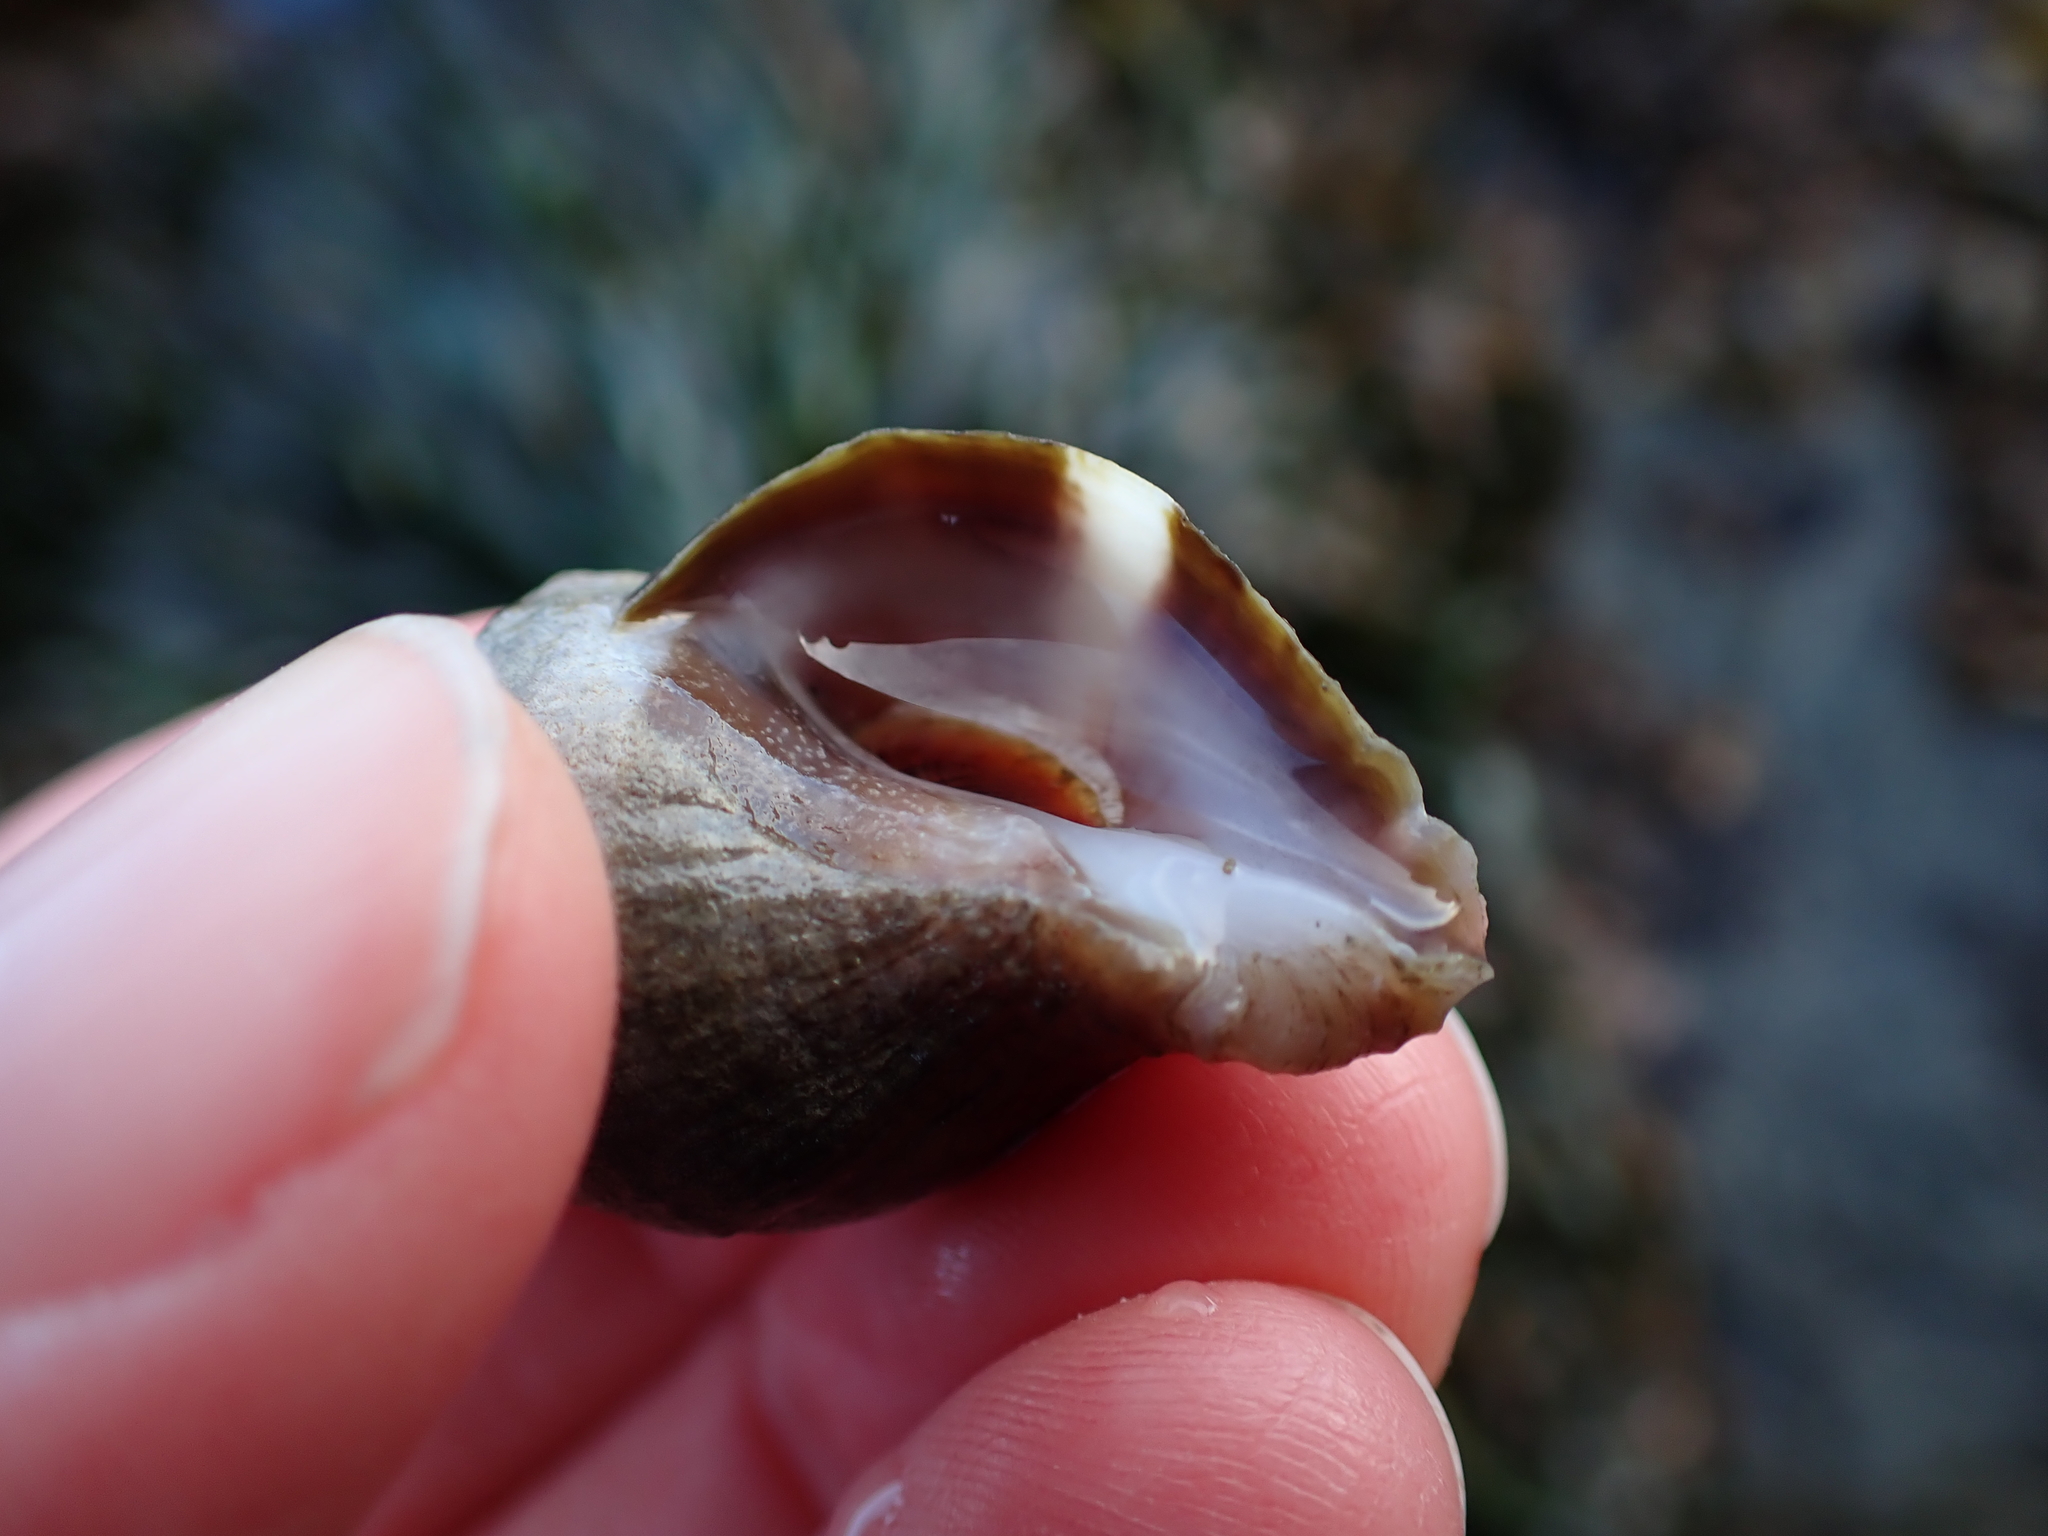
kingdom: Animalia
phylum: Mollusca
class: Gastropoda
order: Neogastropoda
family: Muricidae
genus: Nucella
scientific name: Nucella lamellosa
